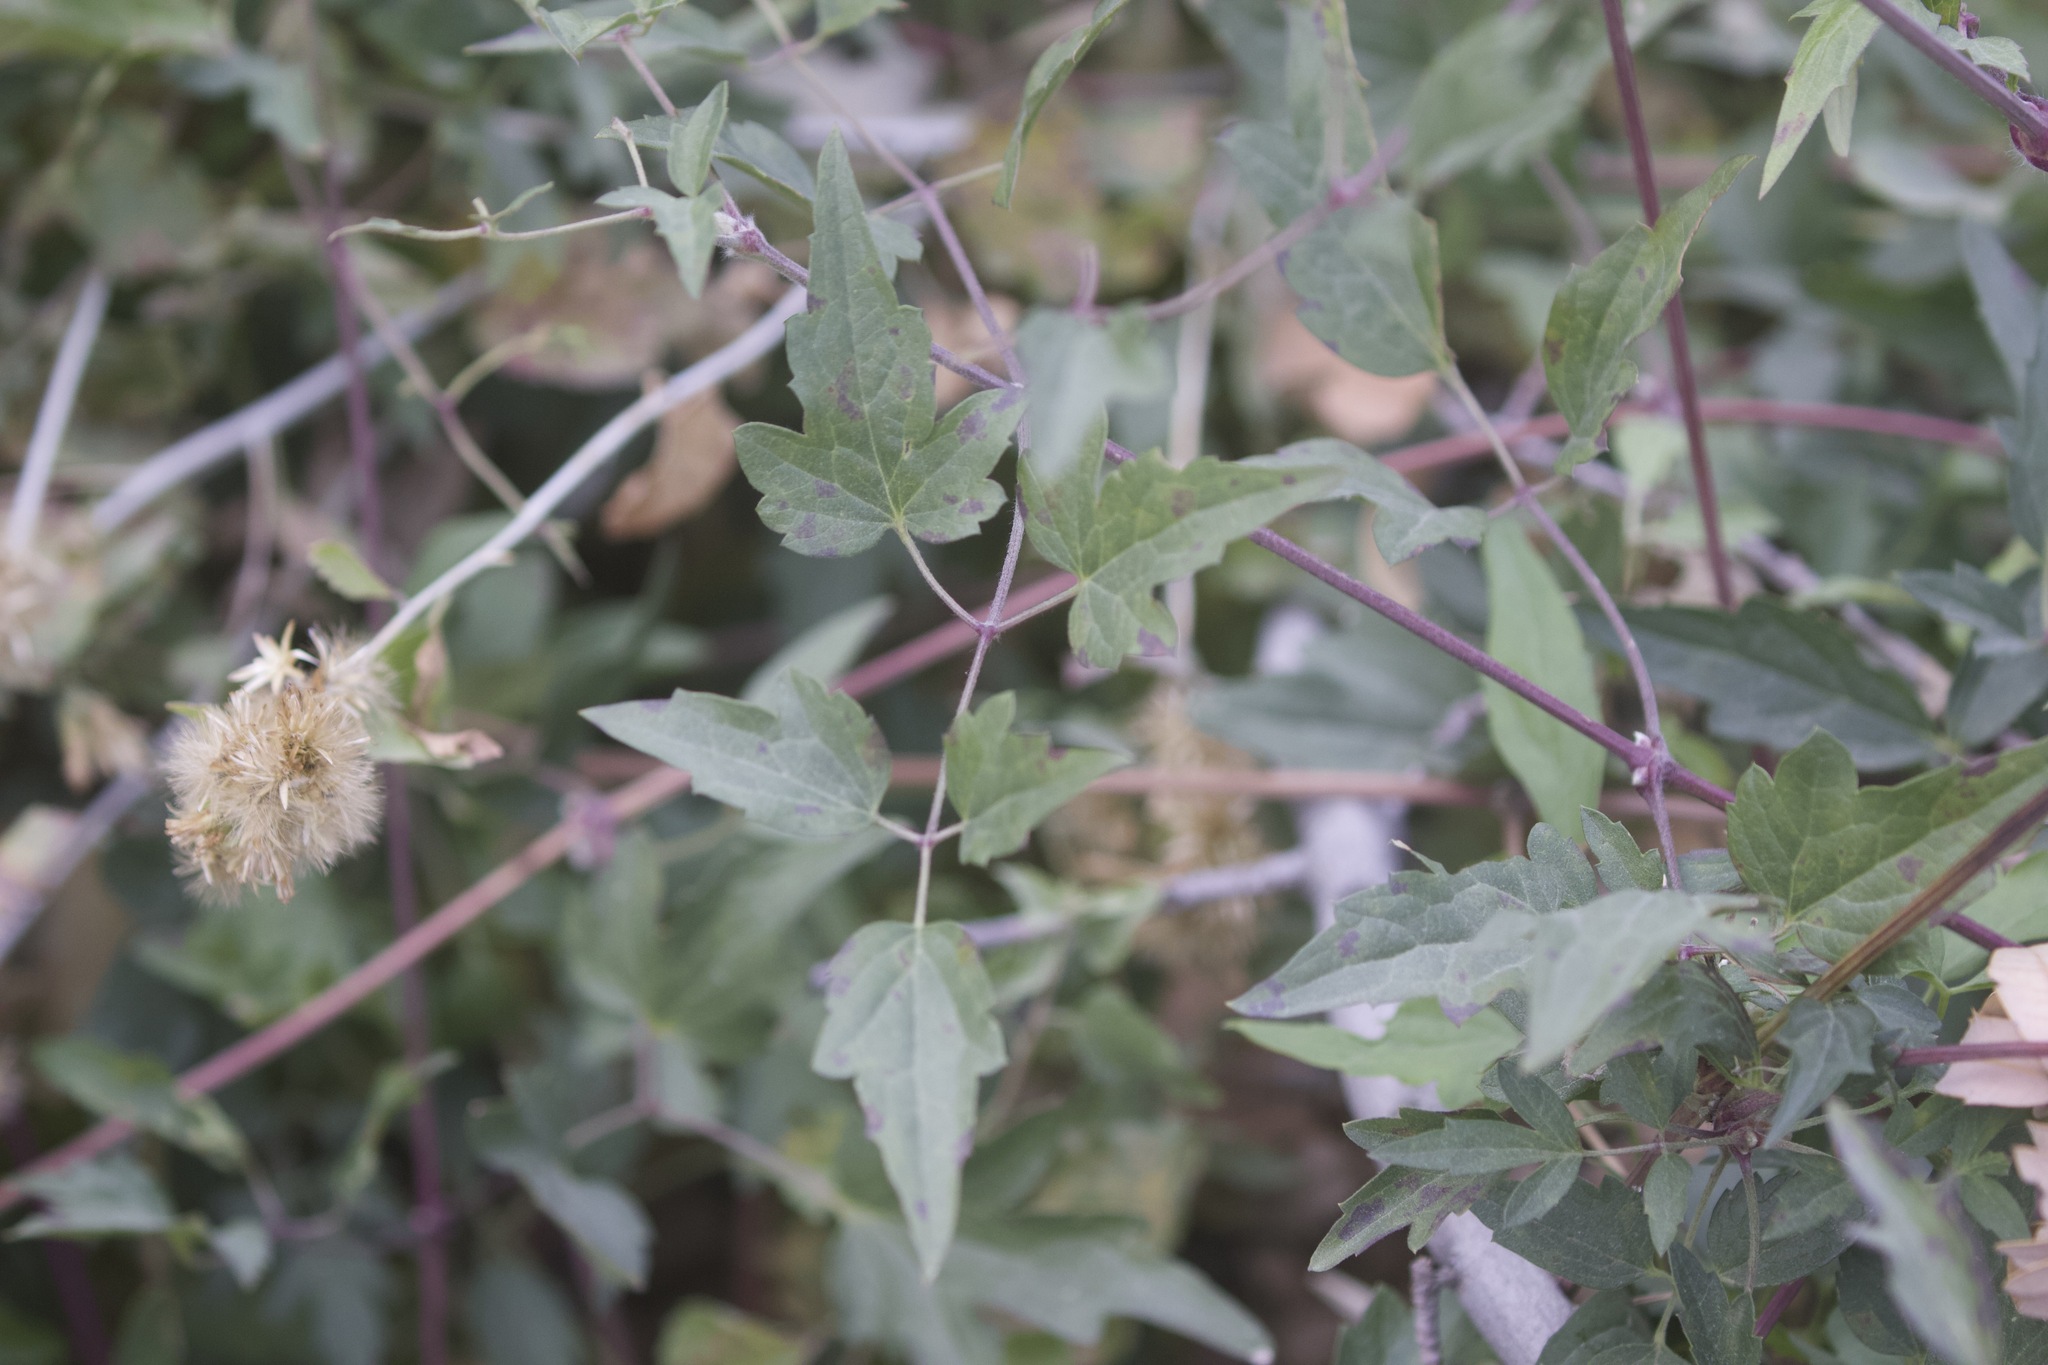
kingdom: Plantae
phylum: Tracheophyta
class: Magnoliopsida
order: Ranunculales
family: Ranunculaceae
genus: Clematis
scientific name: Clematis ligusticifolia
